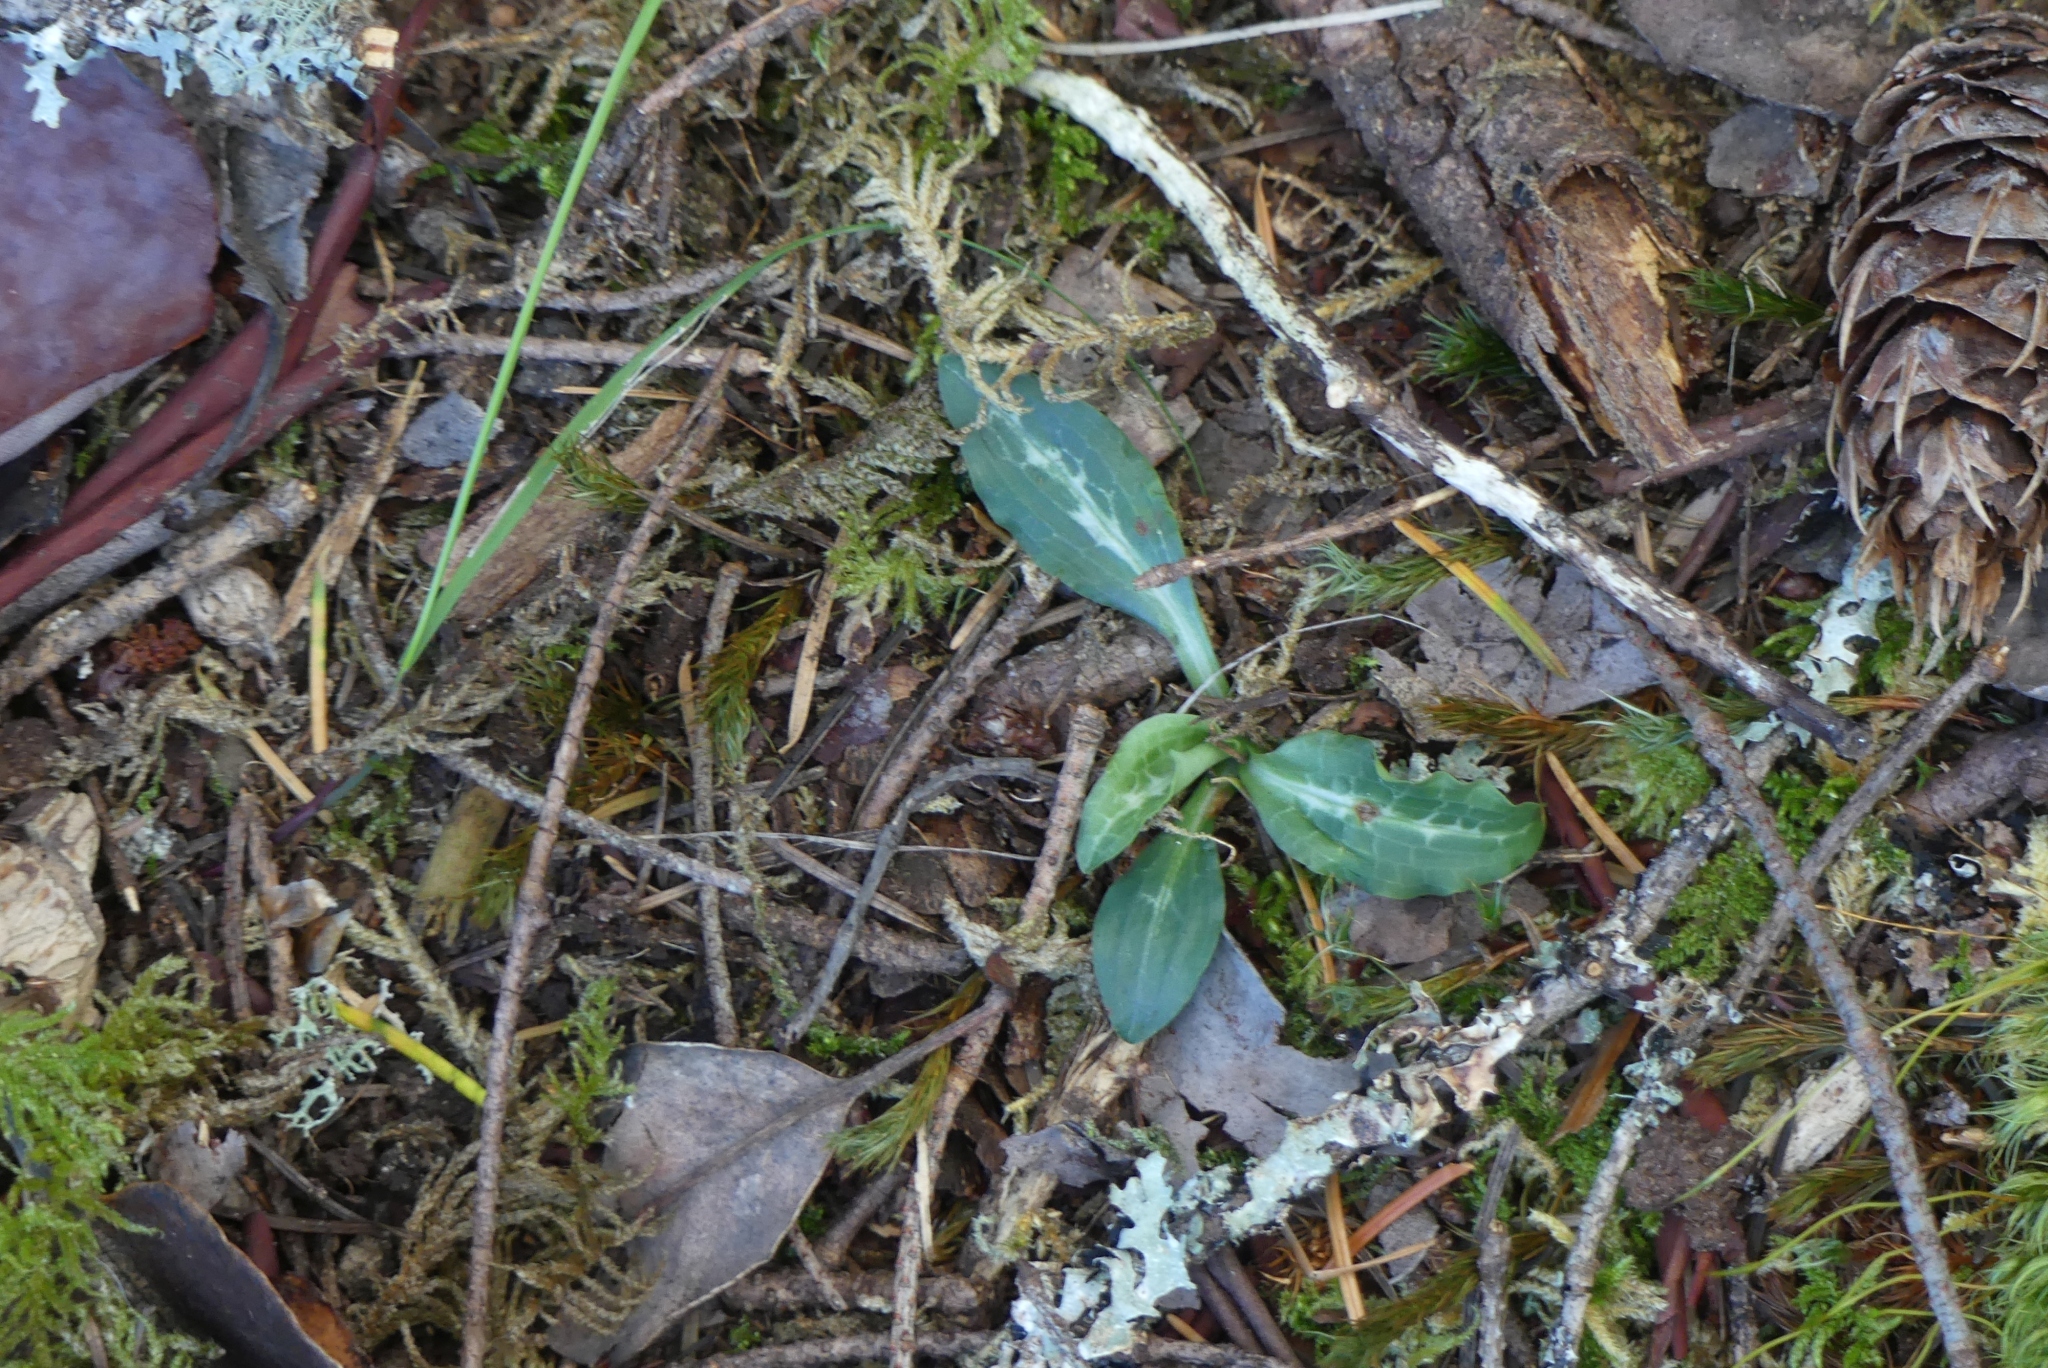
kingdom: Plantae
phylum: Tracheophyta
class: Liliopsida
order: Asparagales
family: Orchidaceae
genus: Goodyera
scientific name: Goodyera oblongifolia
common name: Giant rattlesnake-plantain
